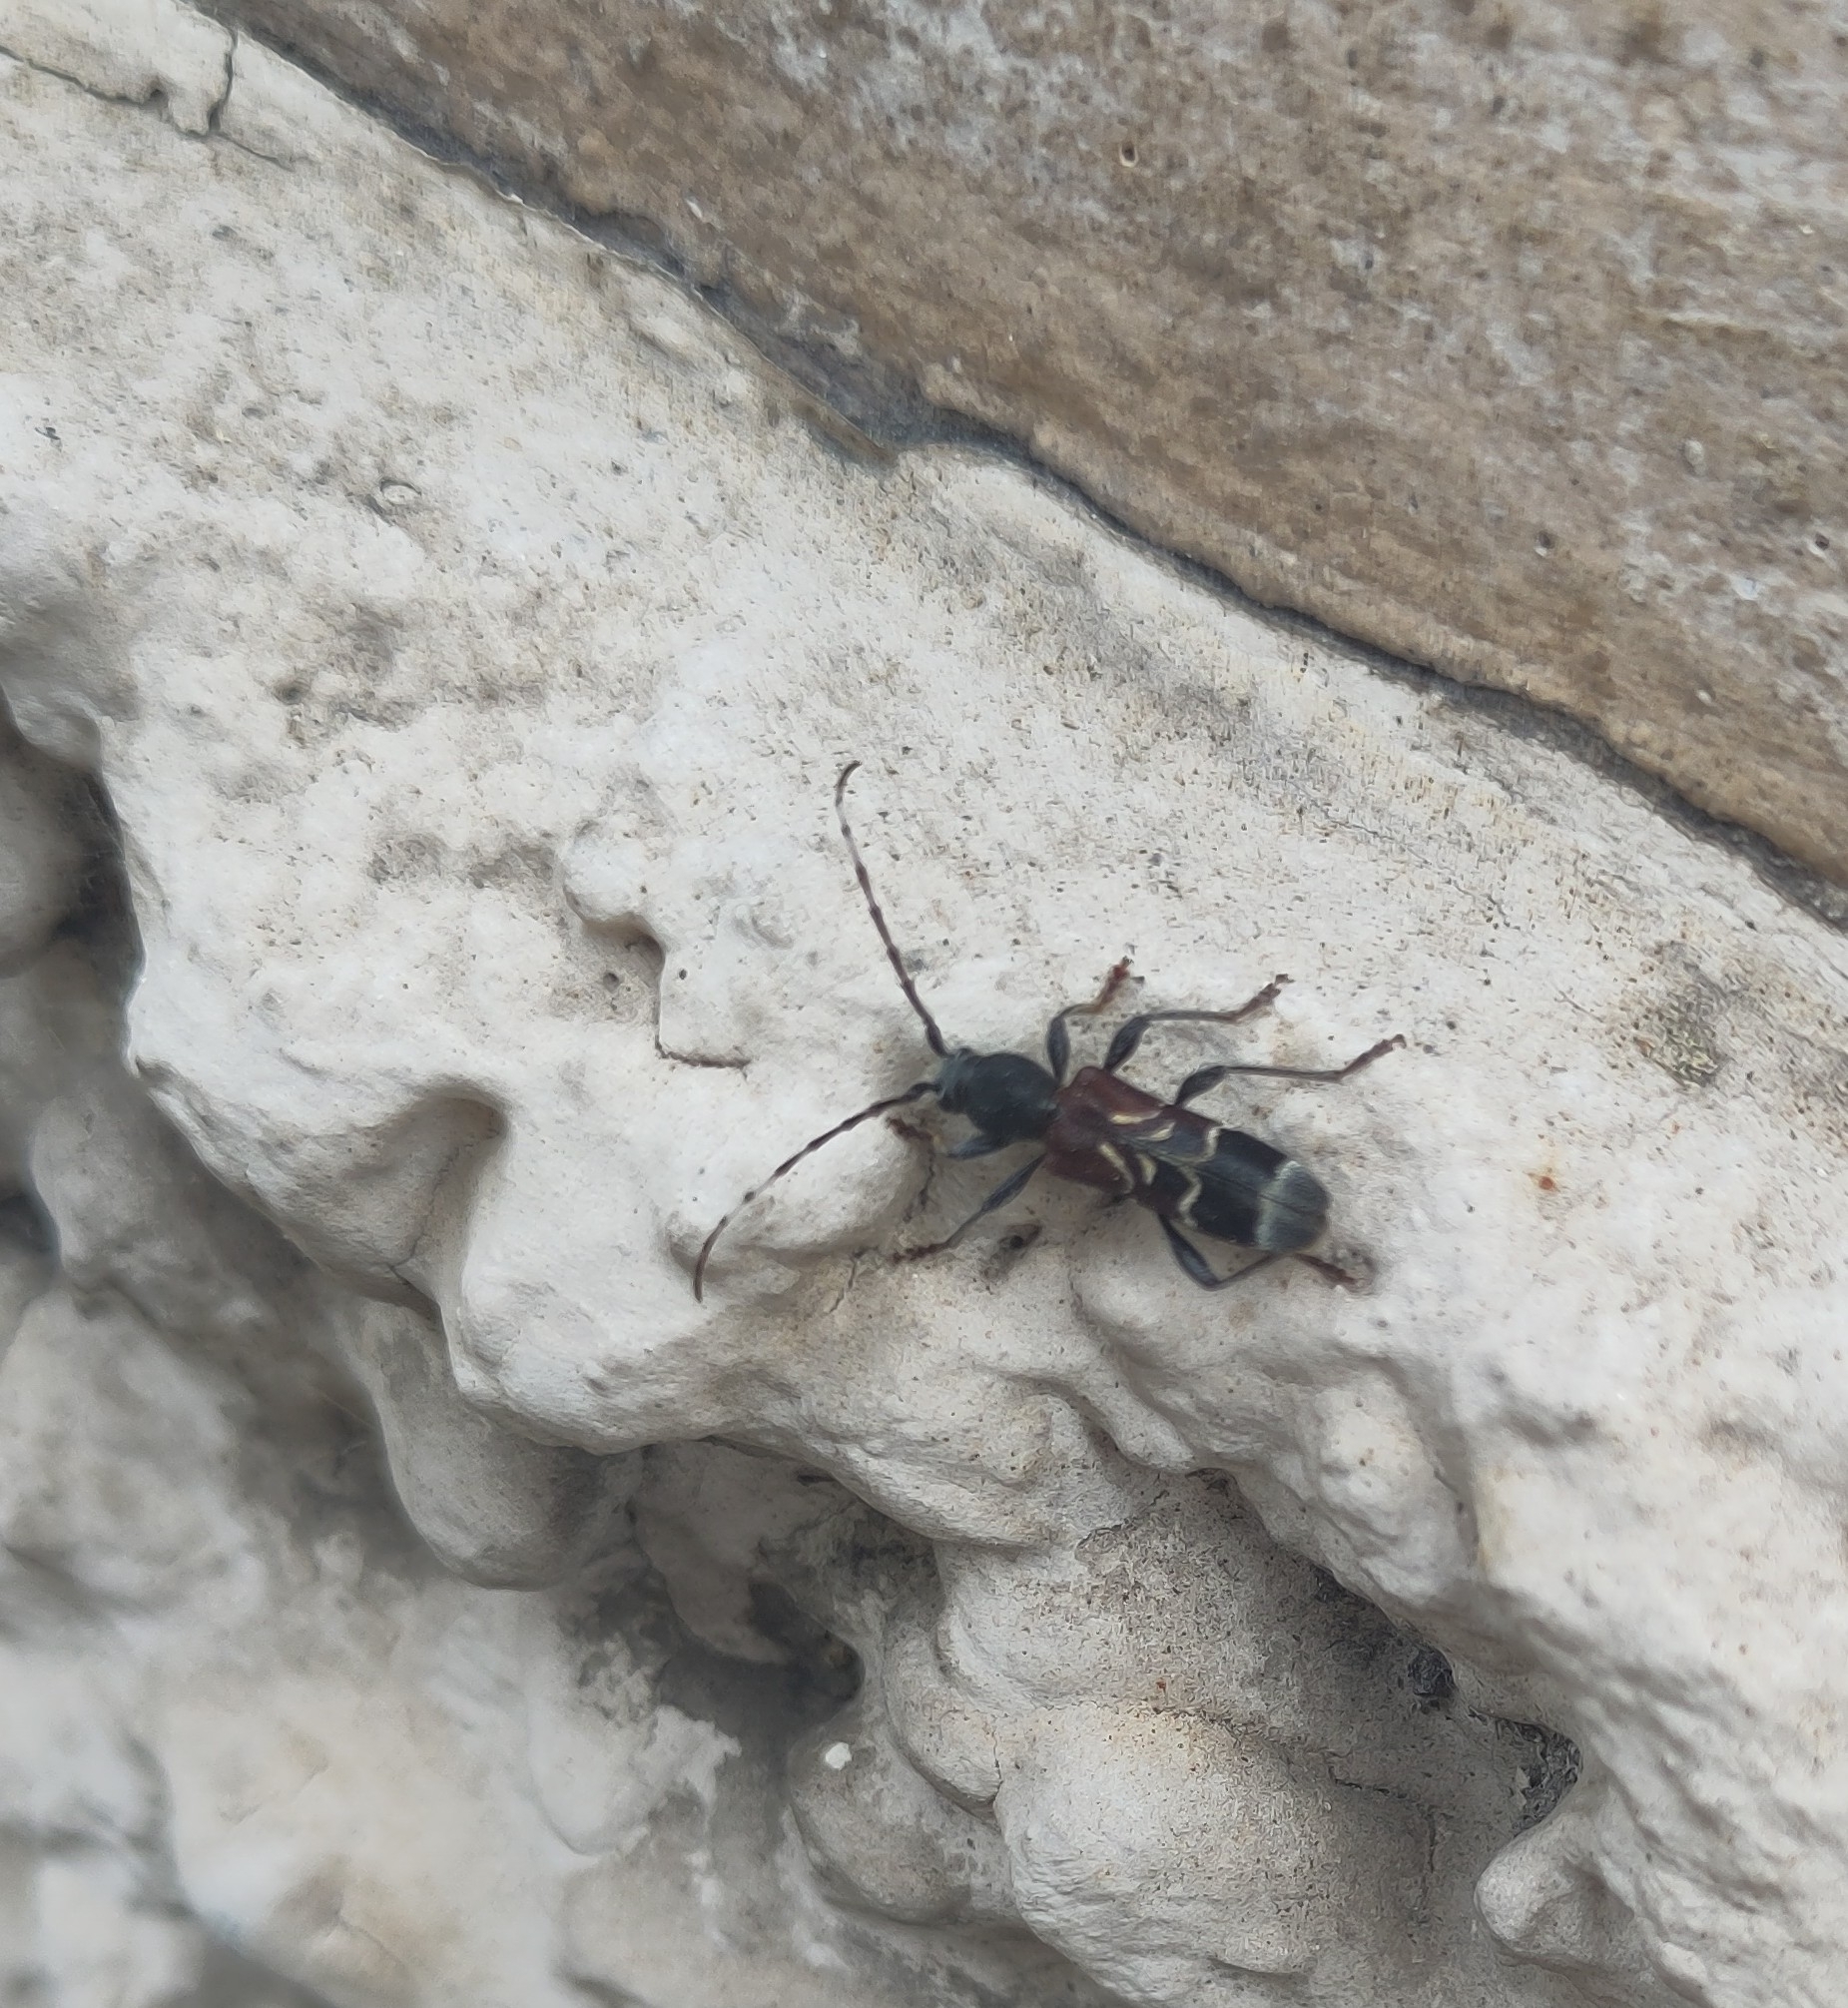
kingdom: Animalia
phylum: Arthropoda
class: Insecta
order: Coleoptera
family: Cerambycidae
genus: Anaglyptus
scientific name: Anaglyptus mysticus
